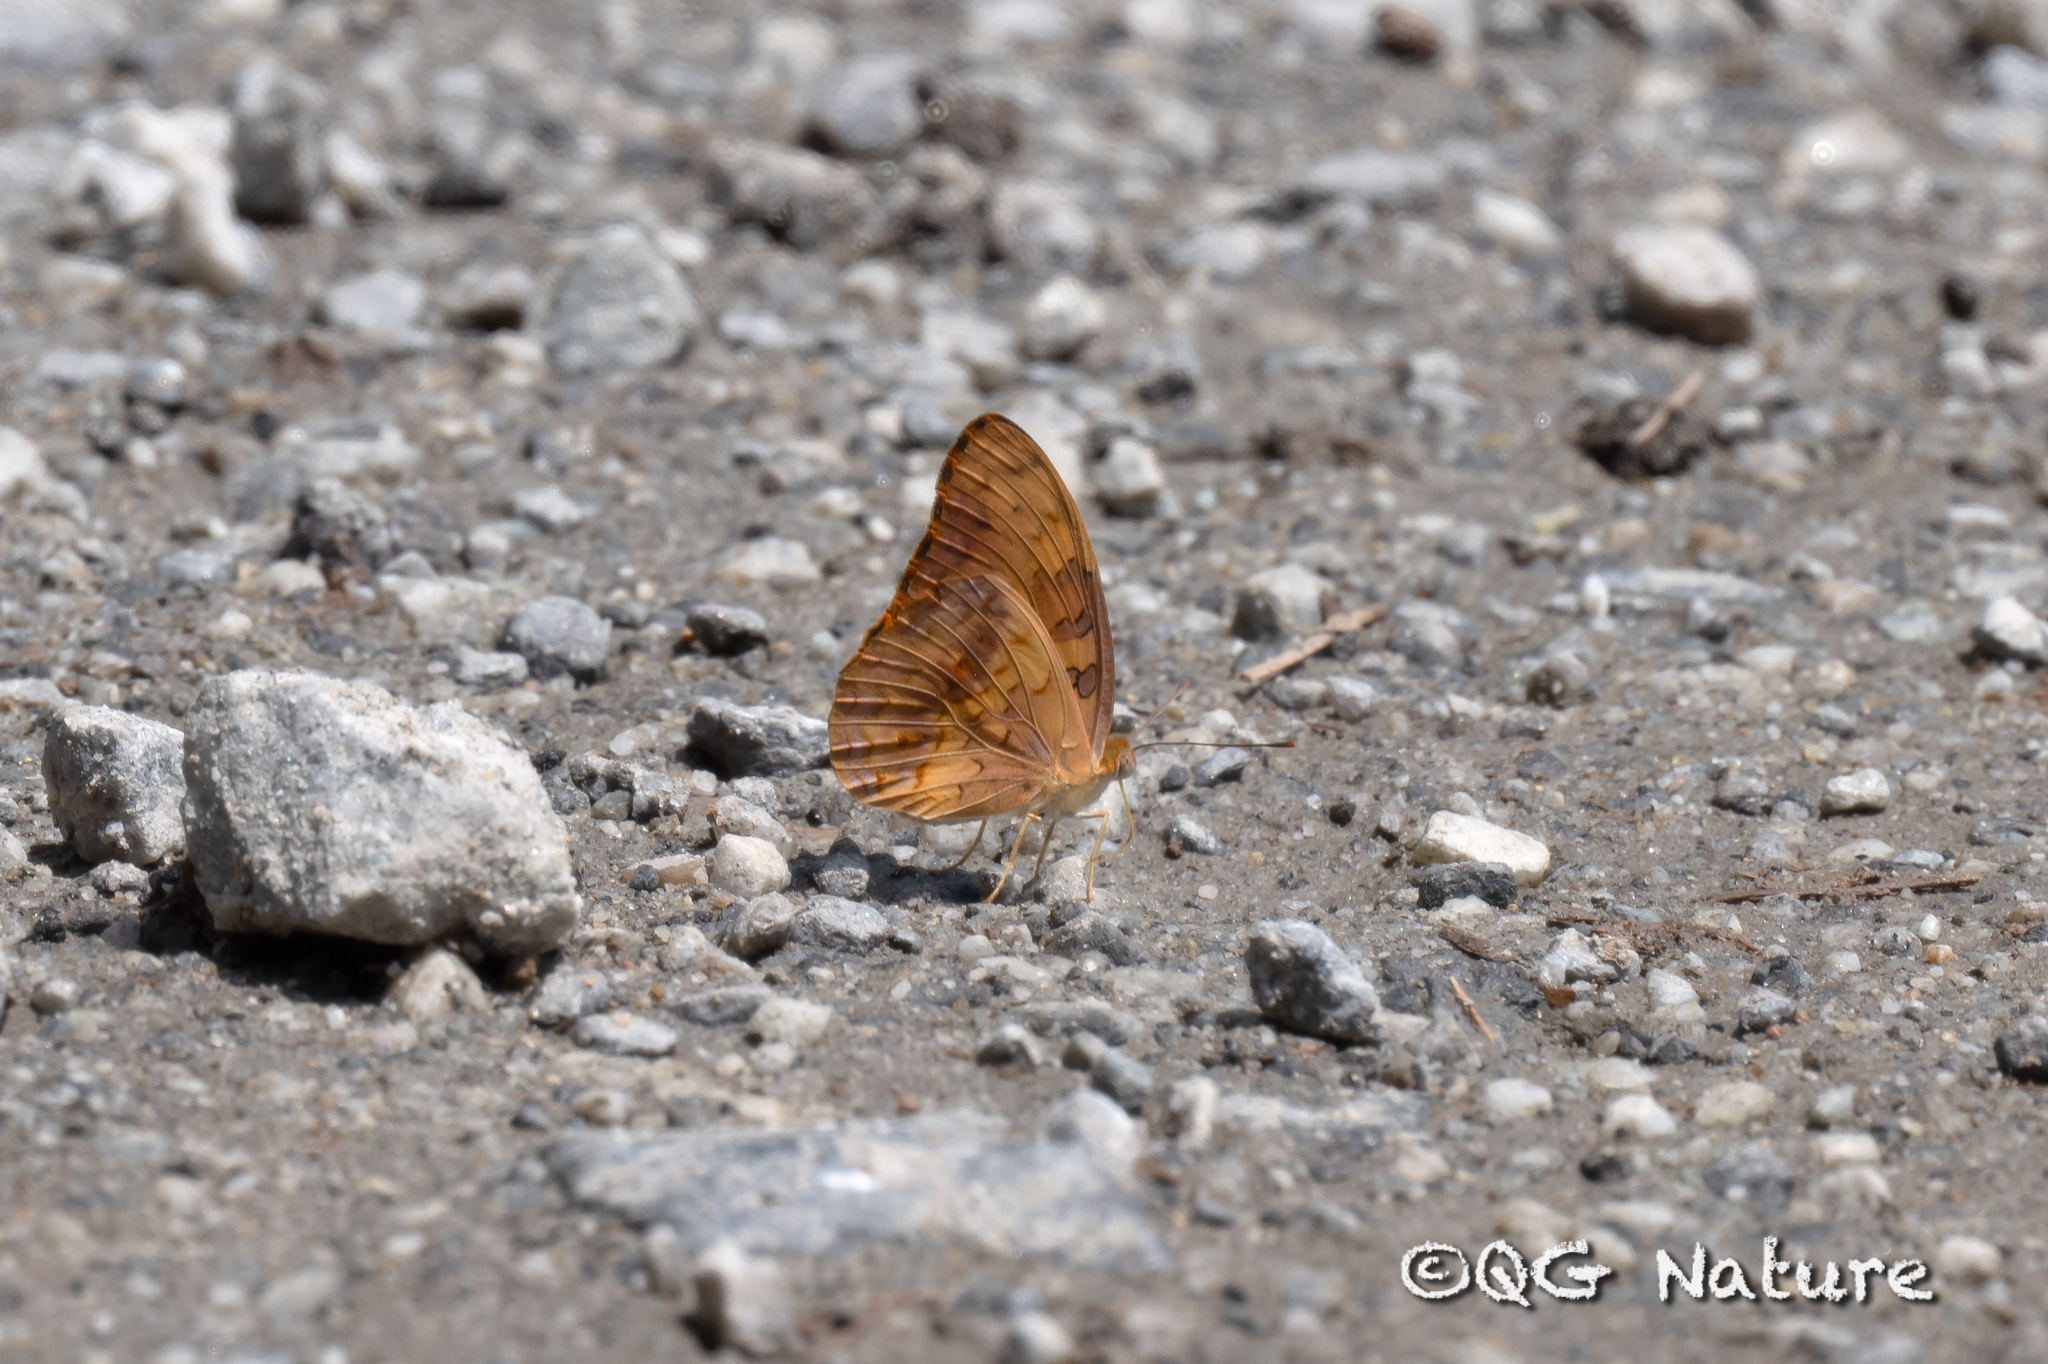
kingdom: Animalia
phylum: Arthropoda
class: Insecta
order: Lepidoptera
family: Nymphalidae
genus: Phalanta
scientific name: Phalanta phalantha
